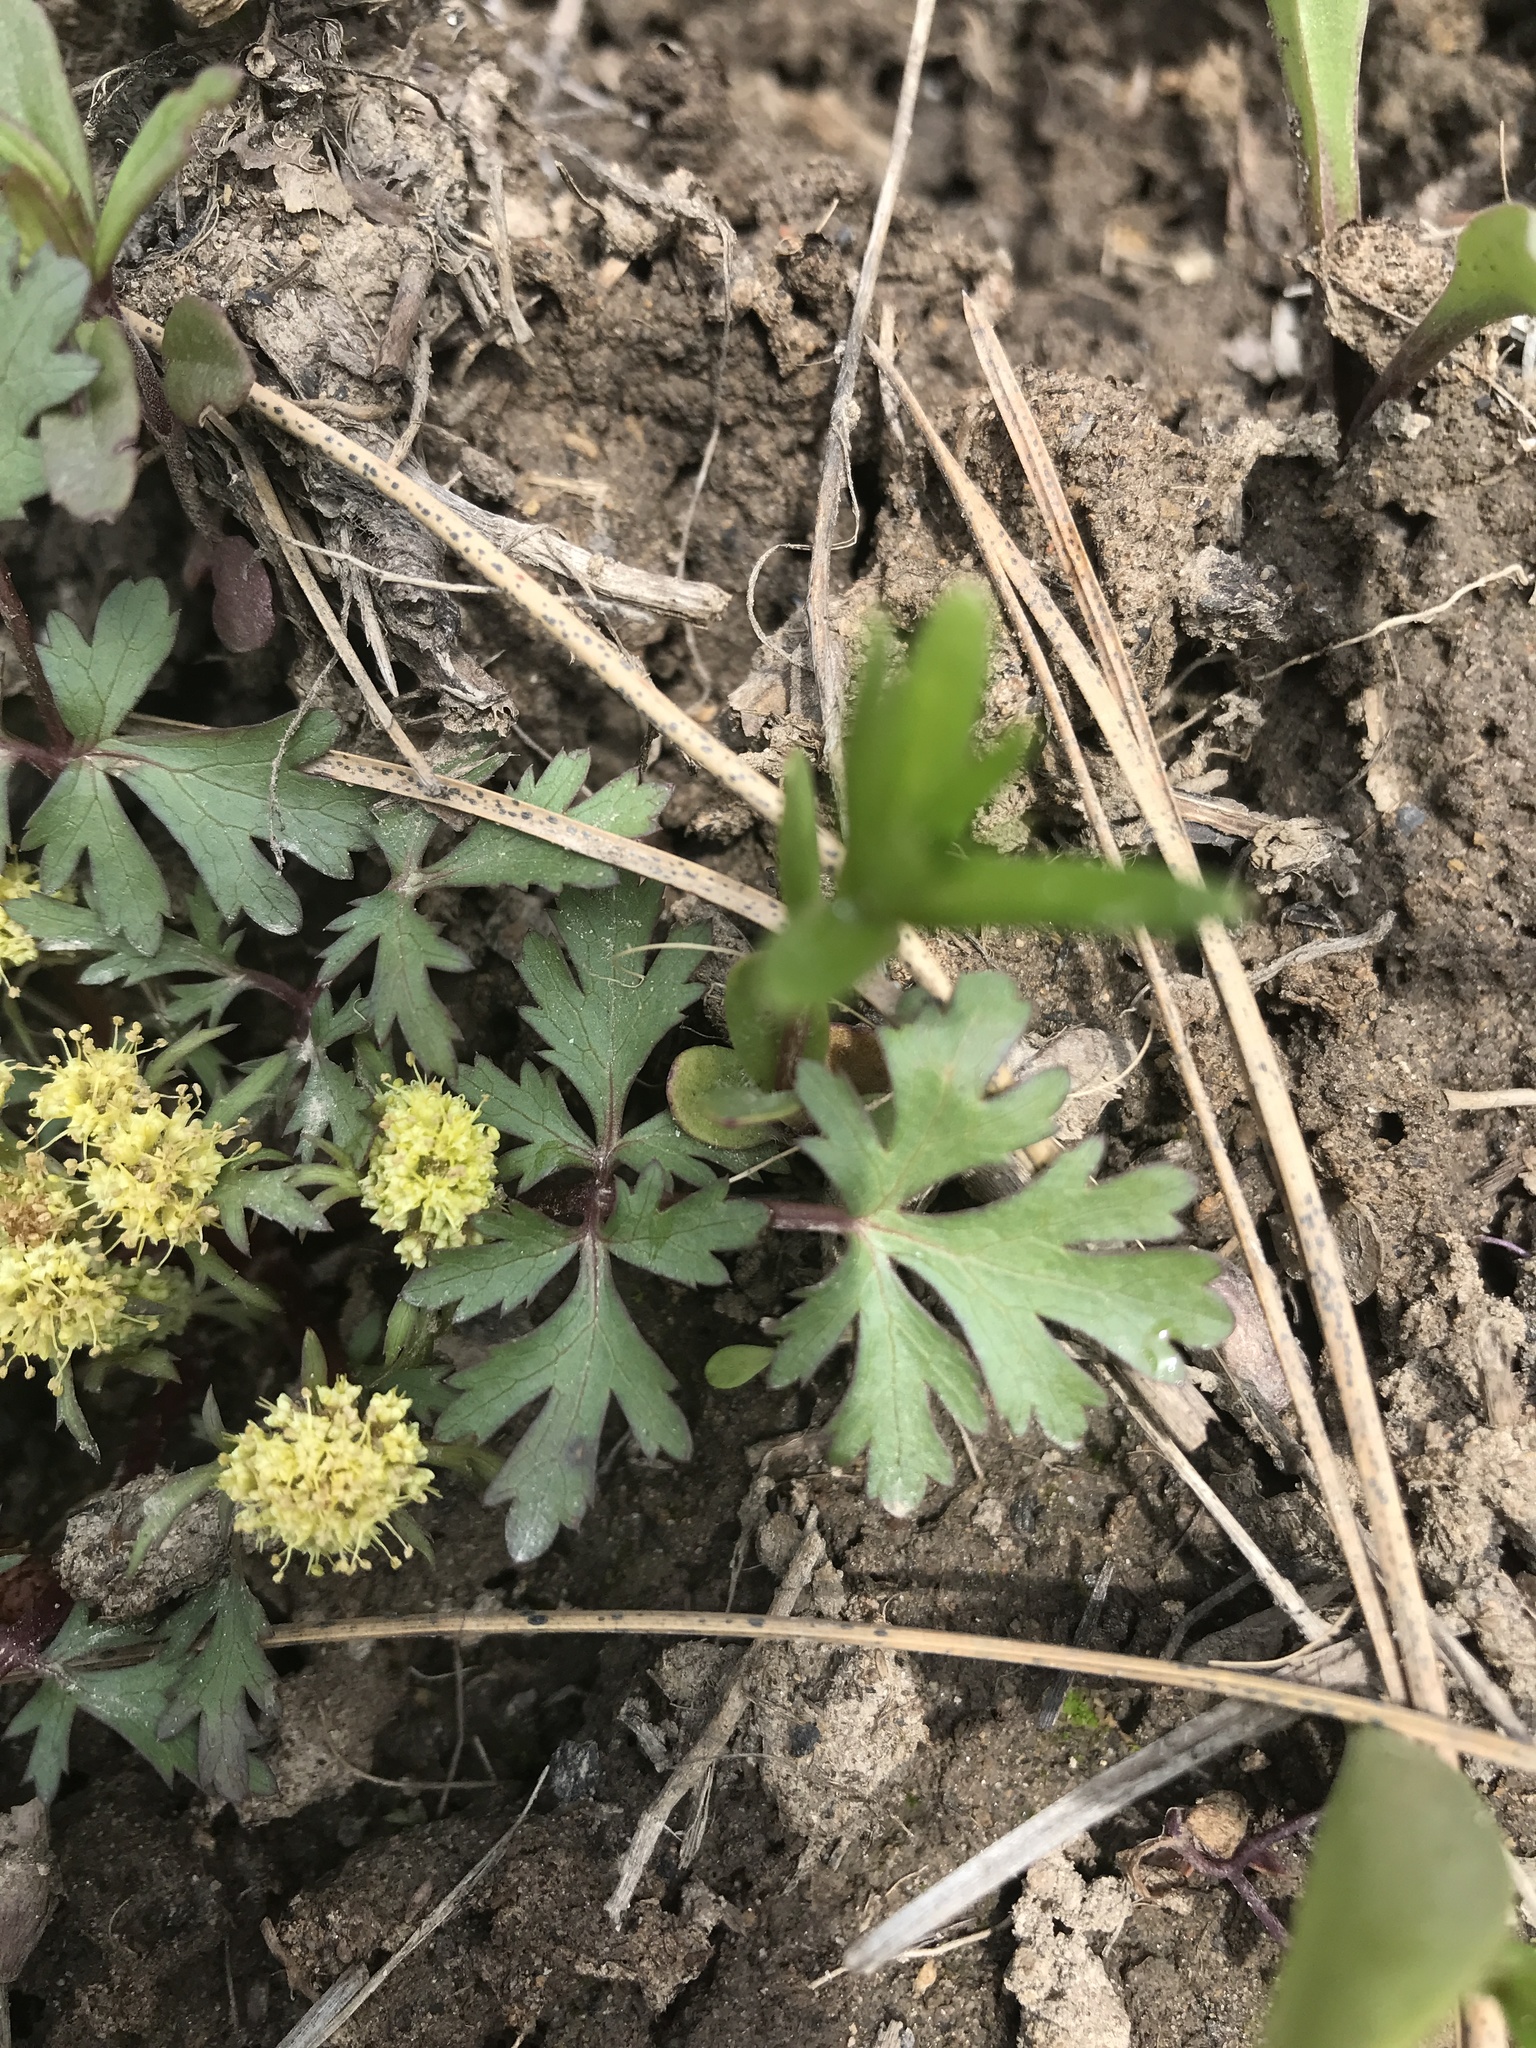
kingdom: Plantae
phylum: Tracheophyta
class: Magnoliopsida
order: Apiales
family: Apiaceae
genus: Sanicula
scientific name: Sanicula graveolens
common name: Sierra sanicle
